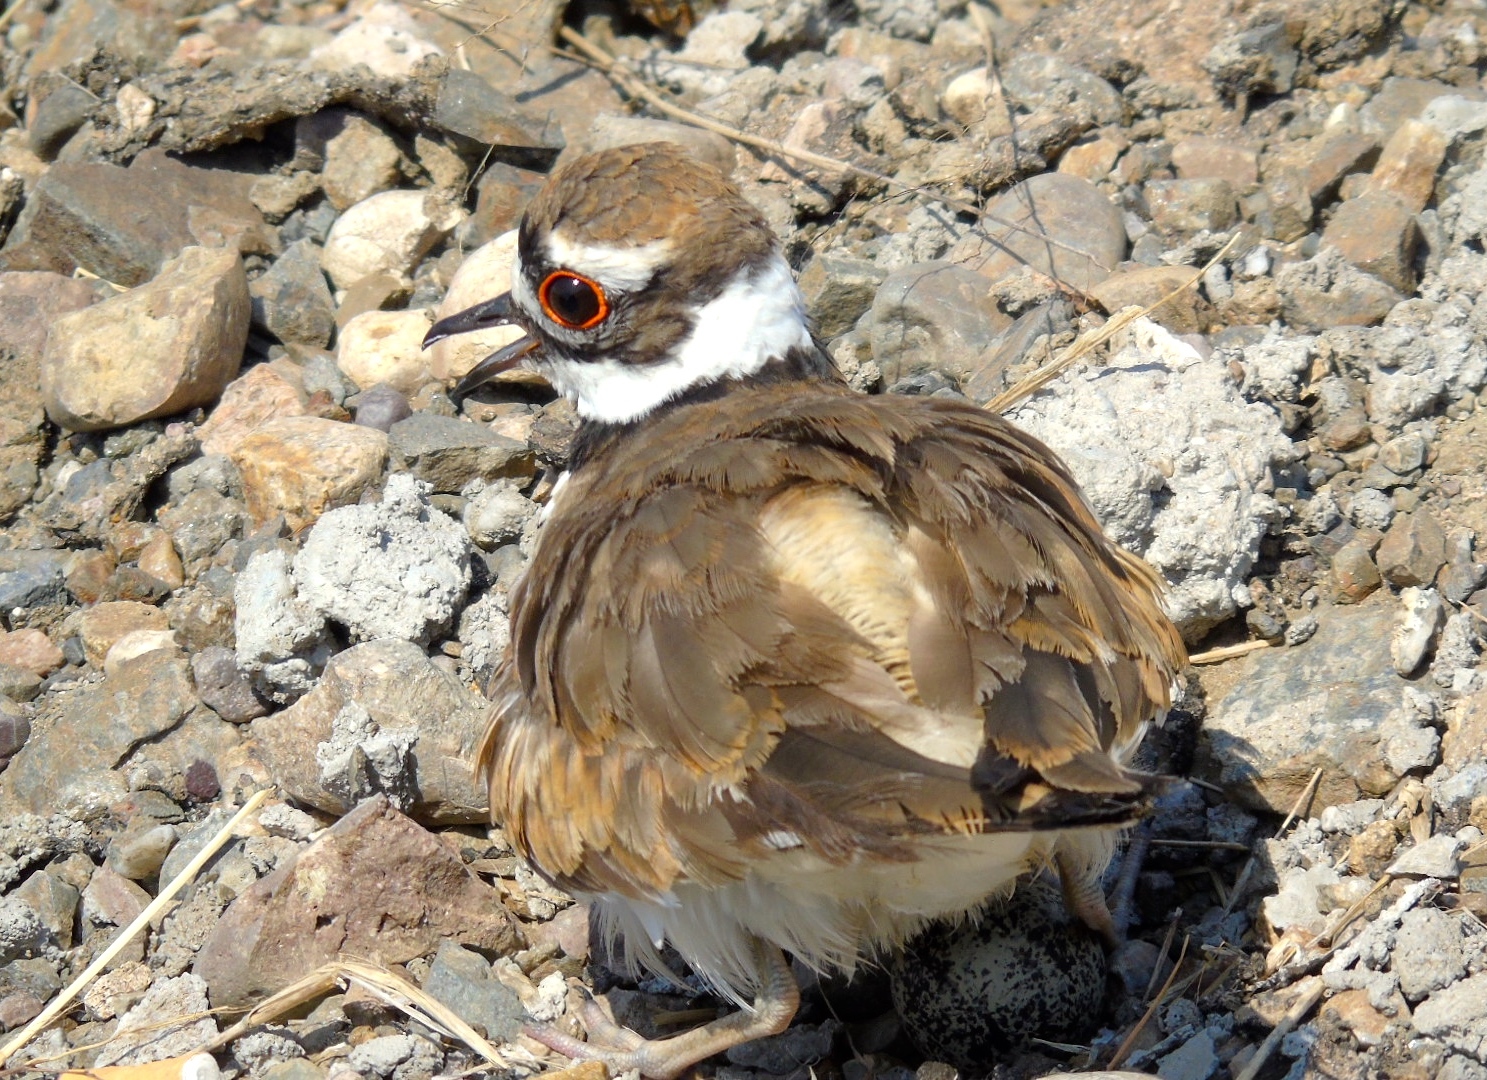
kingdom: Animalia
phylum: Chordata
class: Aves
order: Charadriiformes
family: Charadriidae
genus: Charadrius
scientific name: Charadrius vociferus
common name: Killdeer
